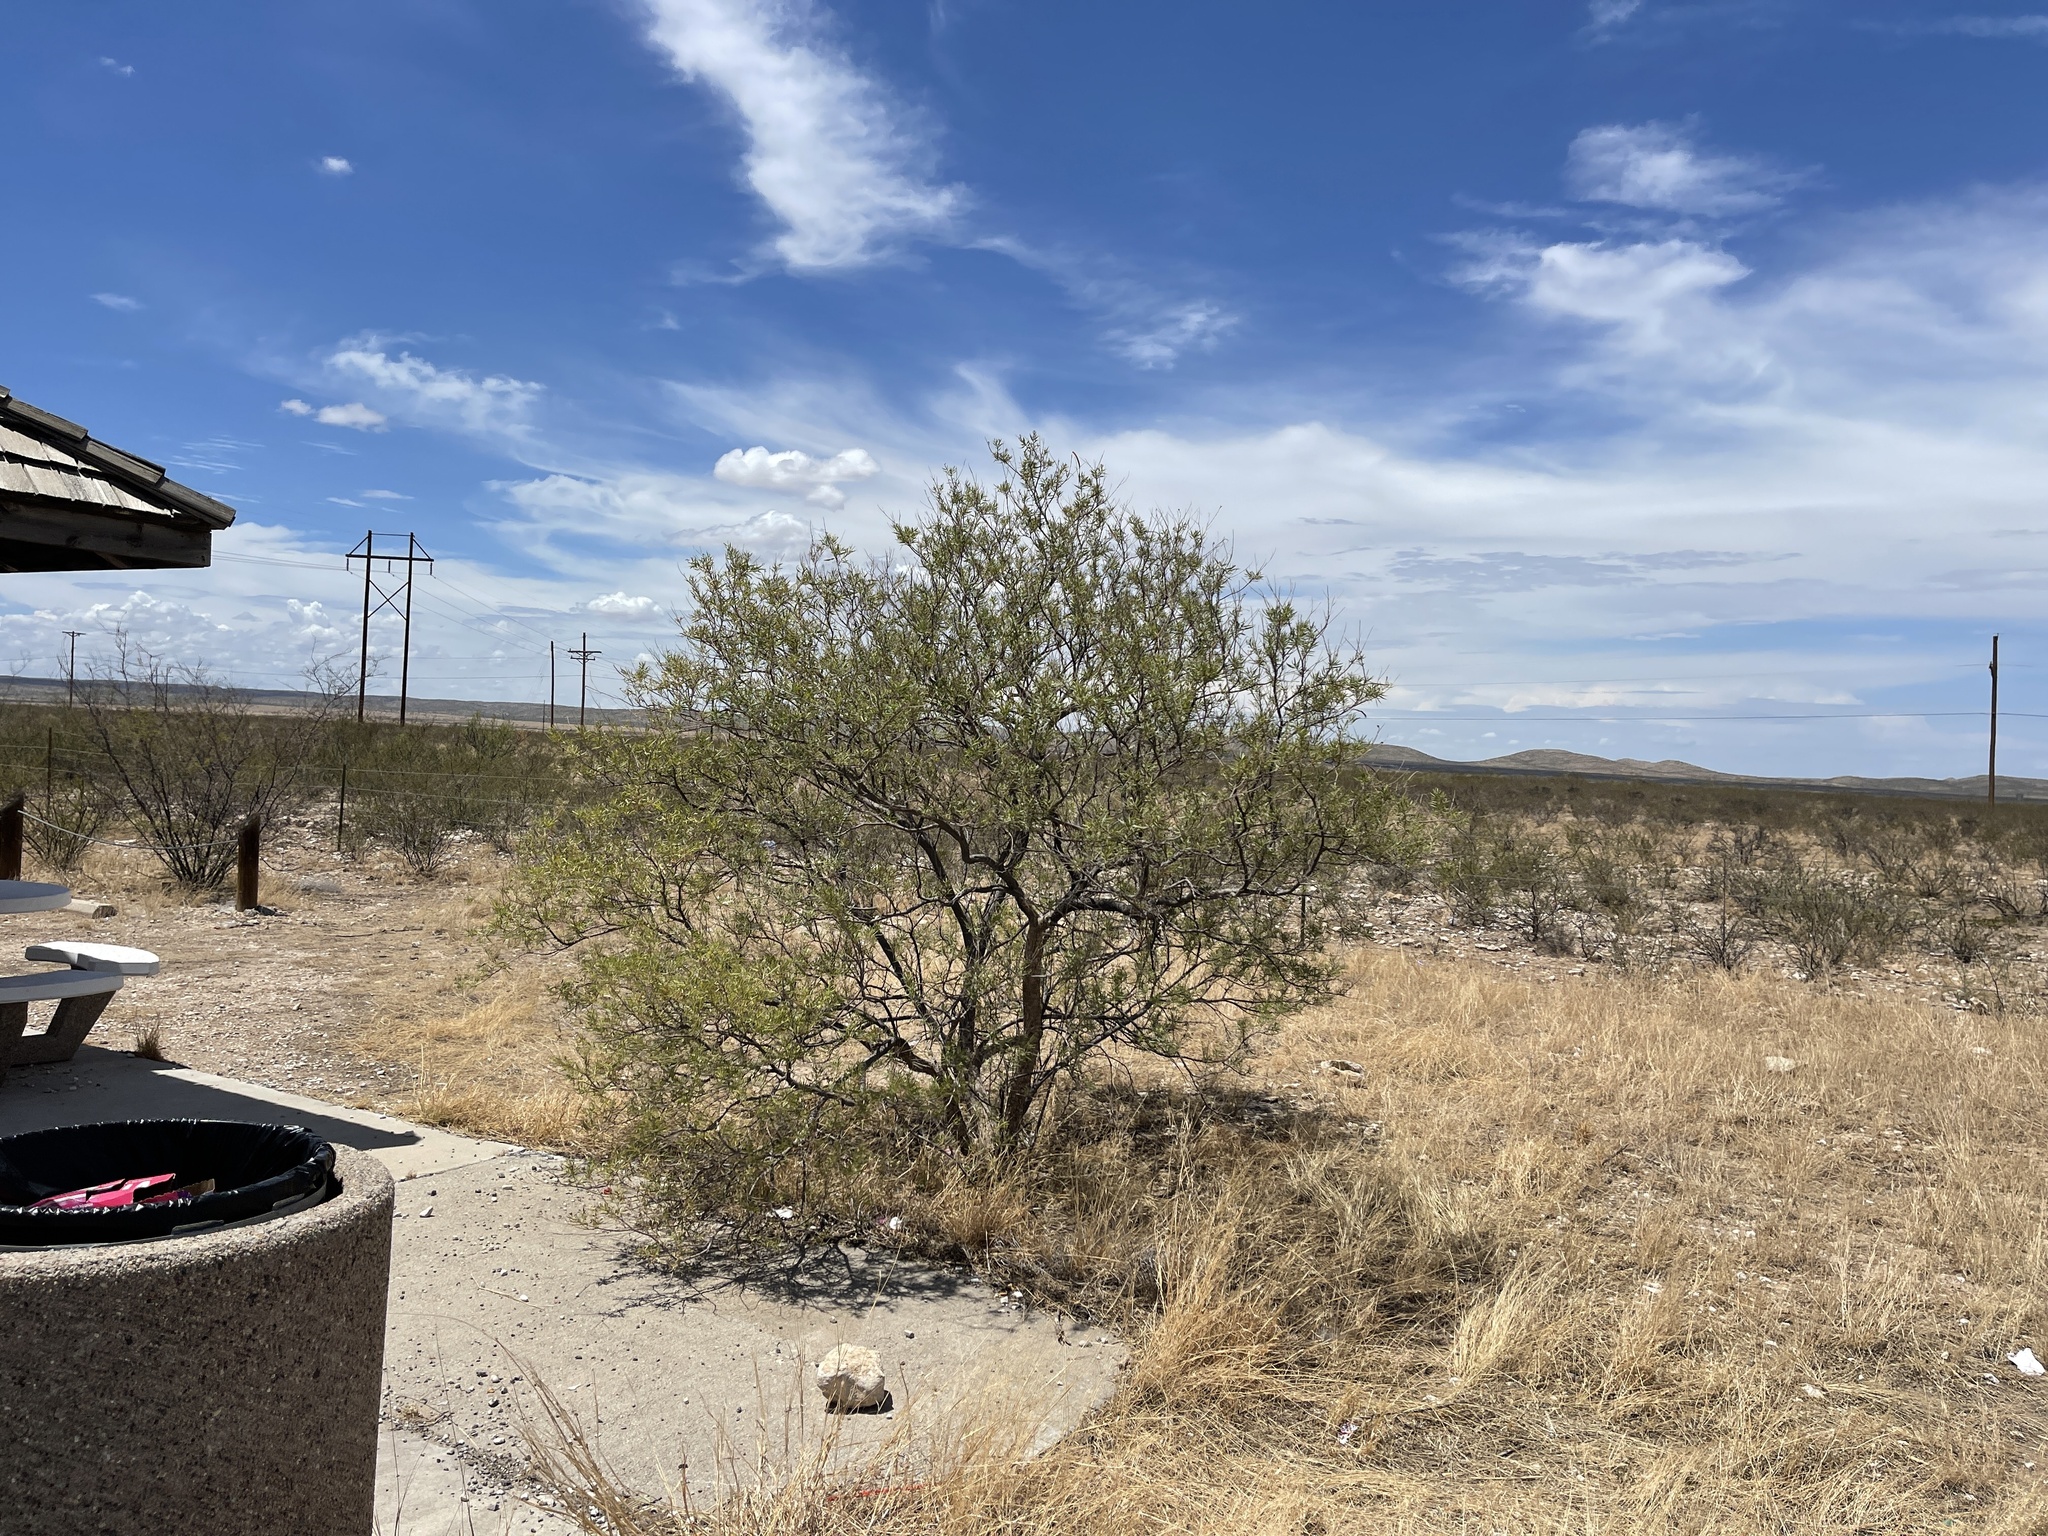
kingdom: Plantae
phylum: Tracheophyta
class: Magnoliopsida
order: Lamiales
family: Bignoniaceae
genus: Chilopsis
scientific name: Chilopsis linearis
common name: Desert-willow
